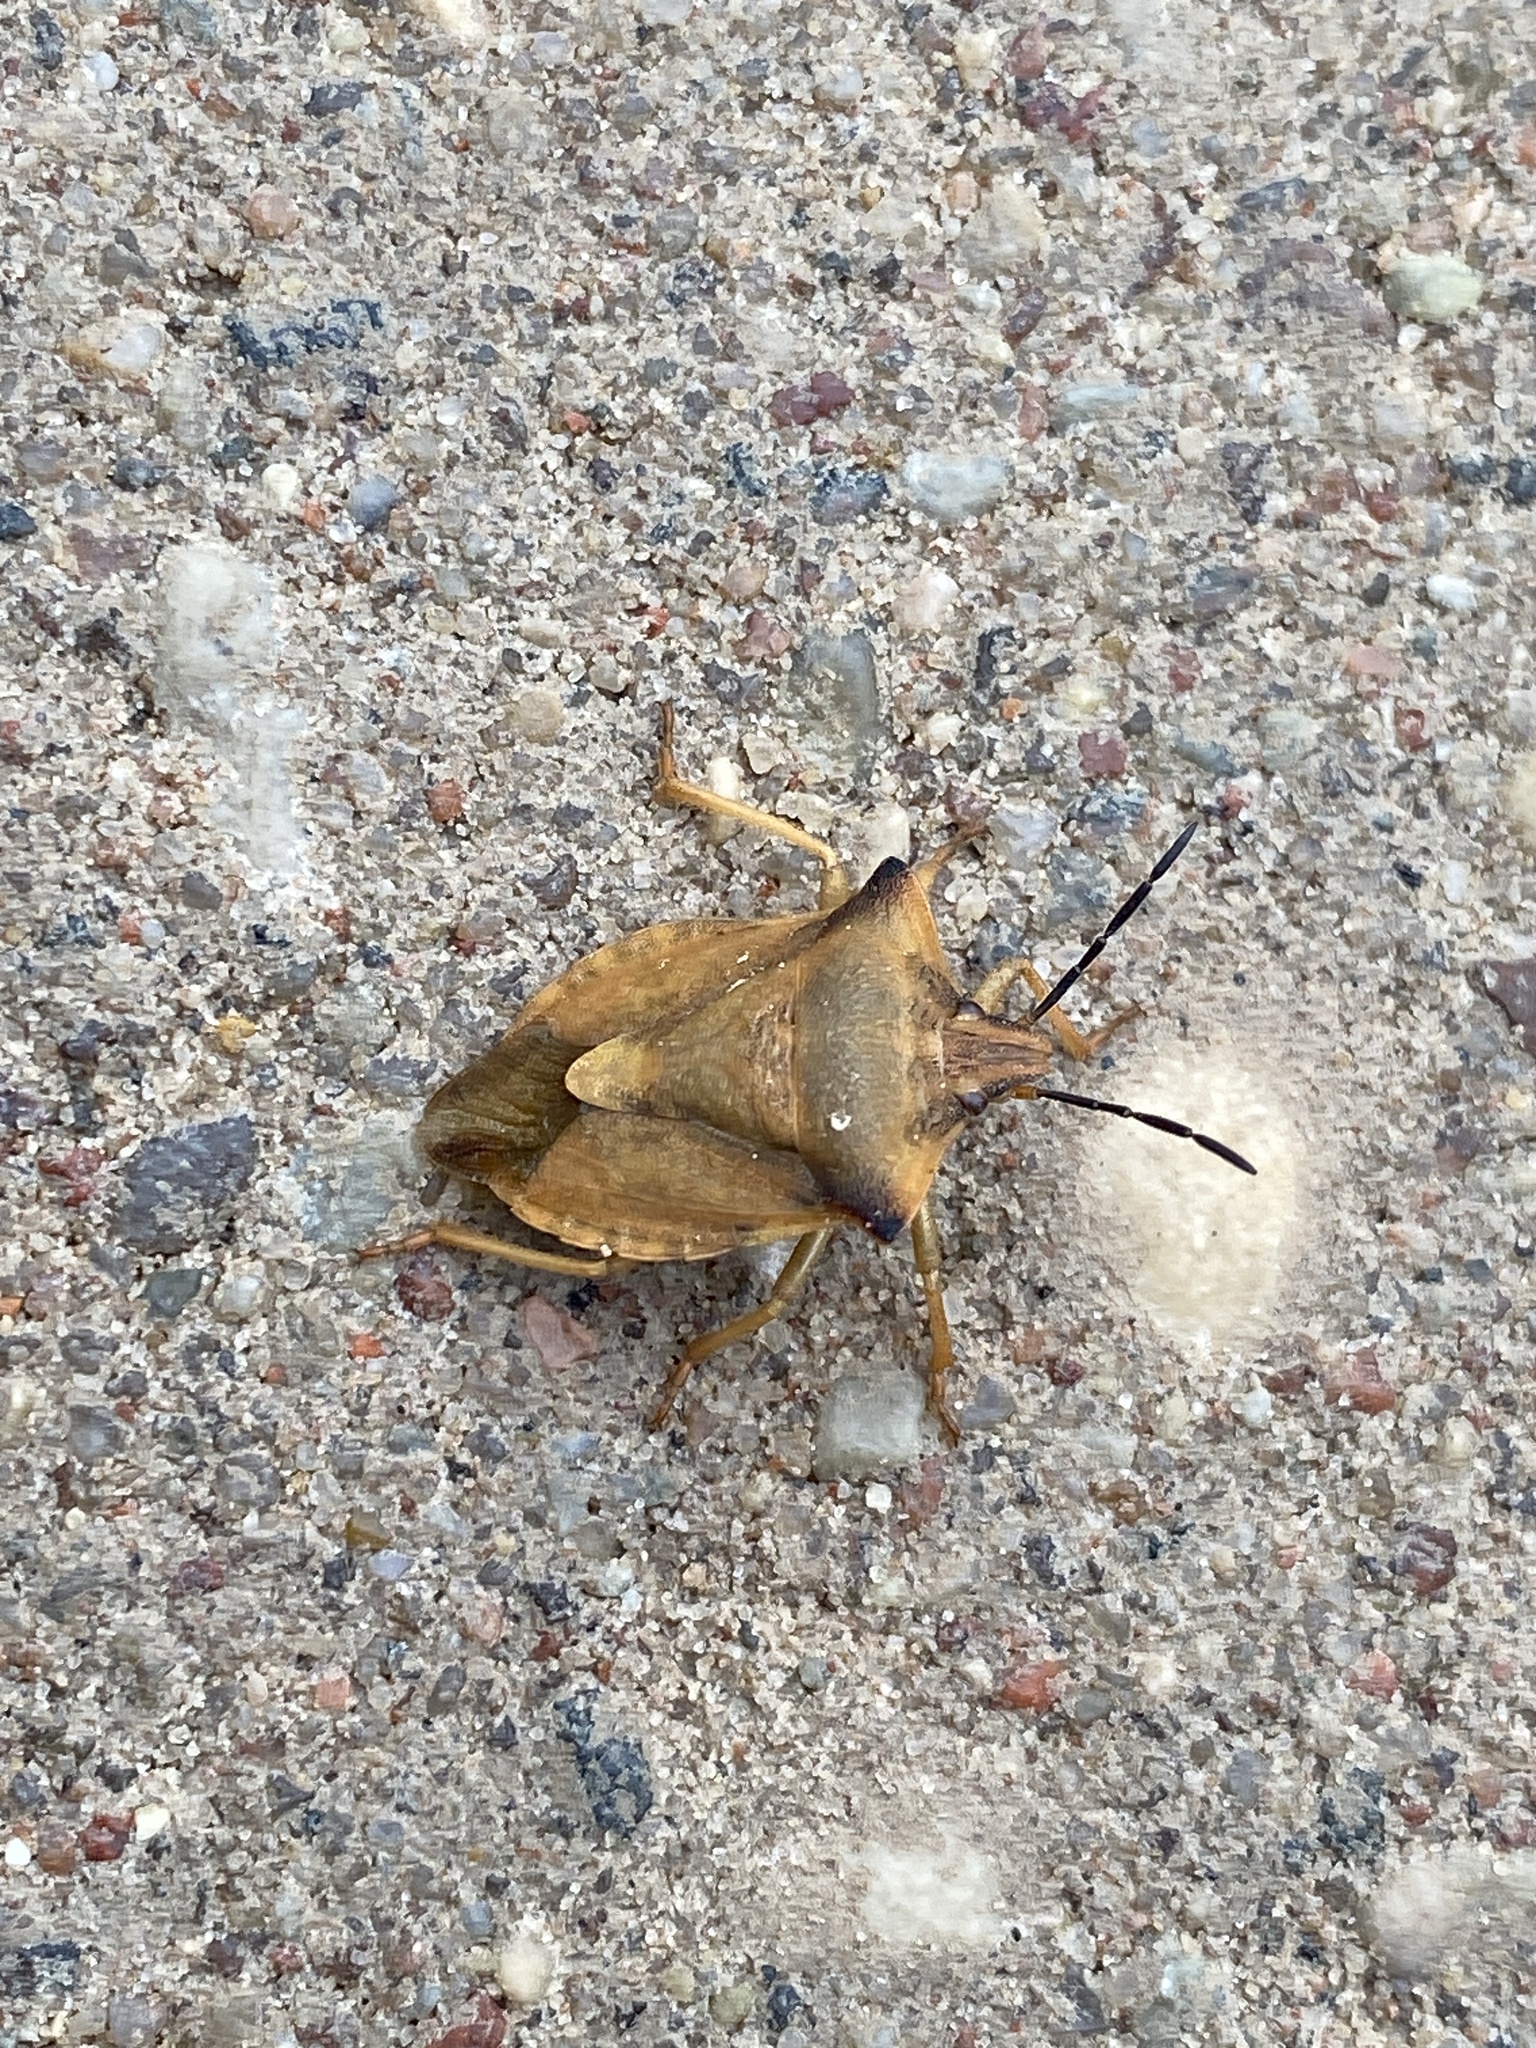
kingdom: Animalia
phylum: Arthropoda
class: Insecta
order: Hemiptera
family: Pentatomidae
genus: Carpocoris
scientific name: Carpocoris fuscispinus
